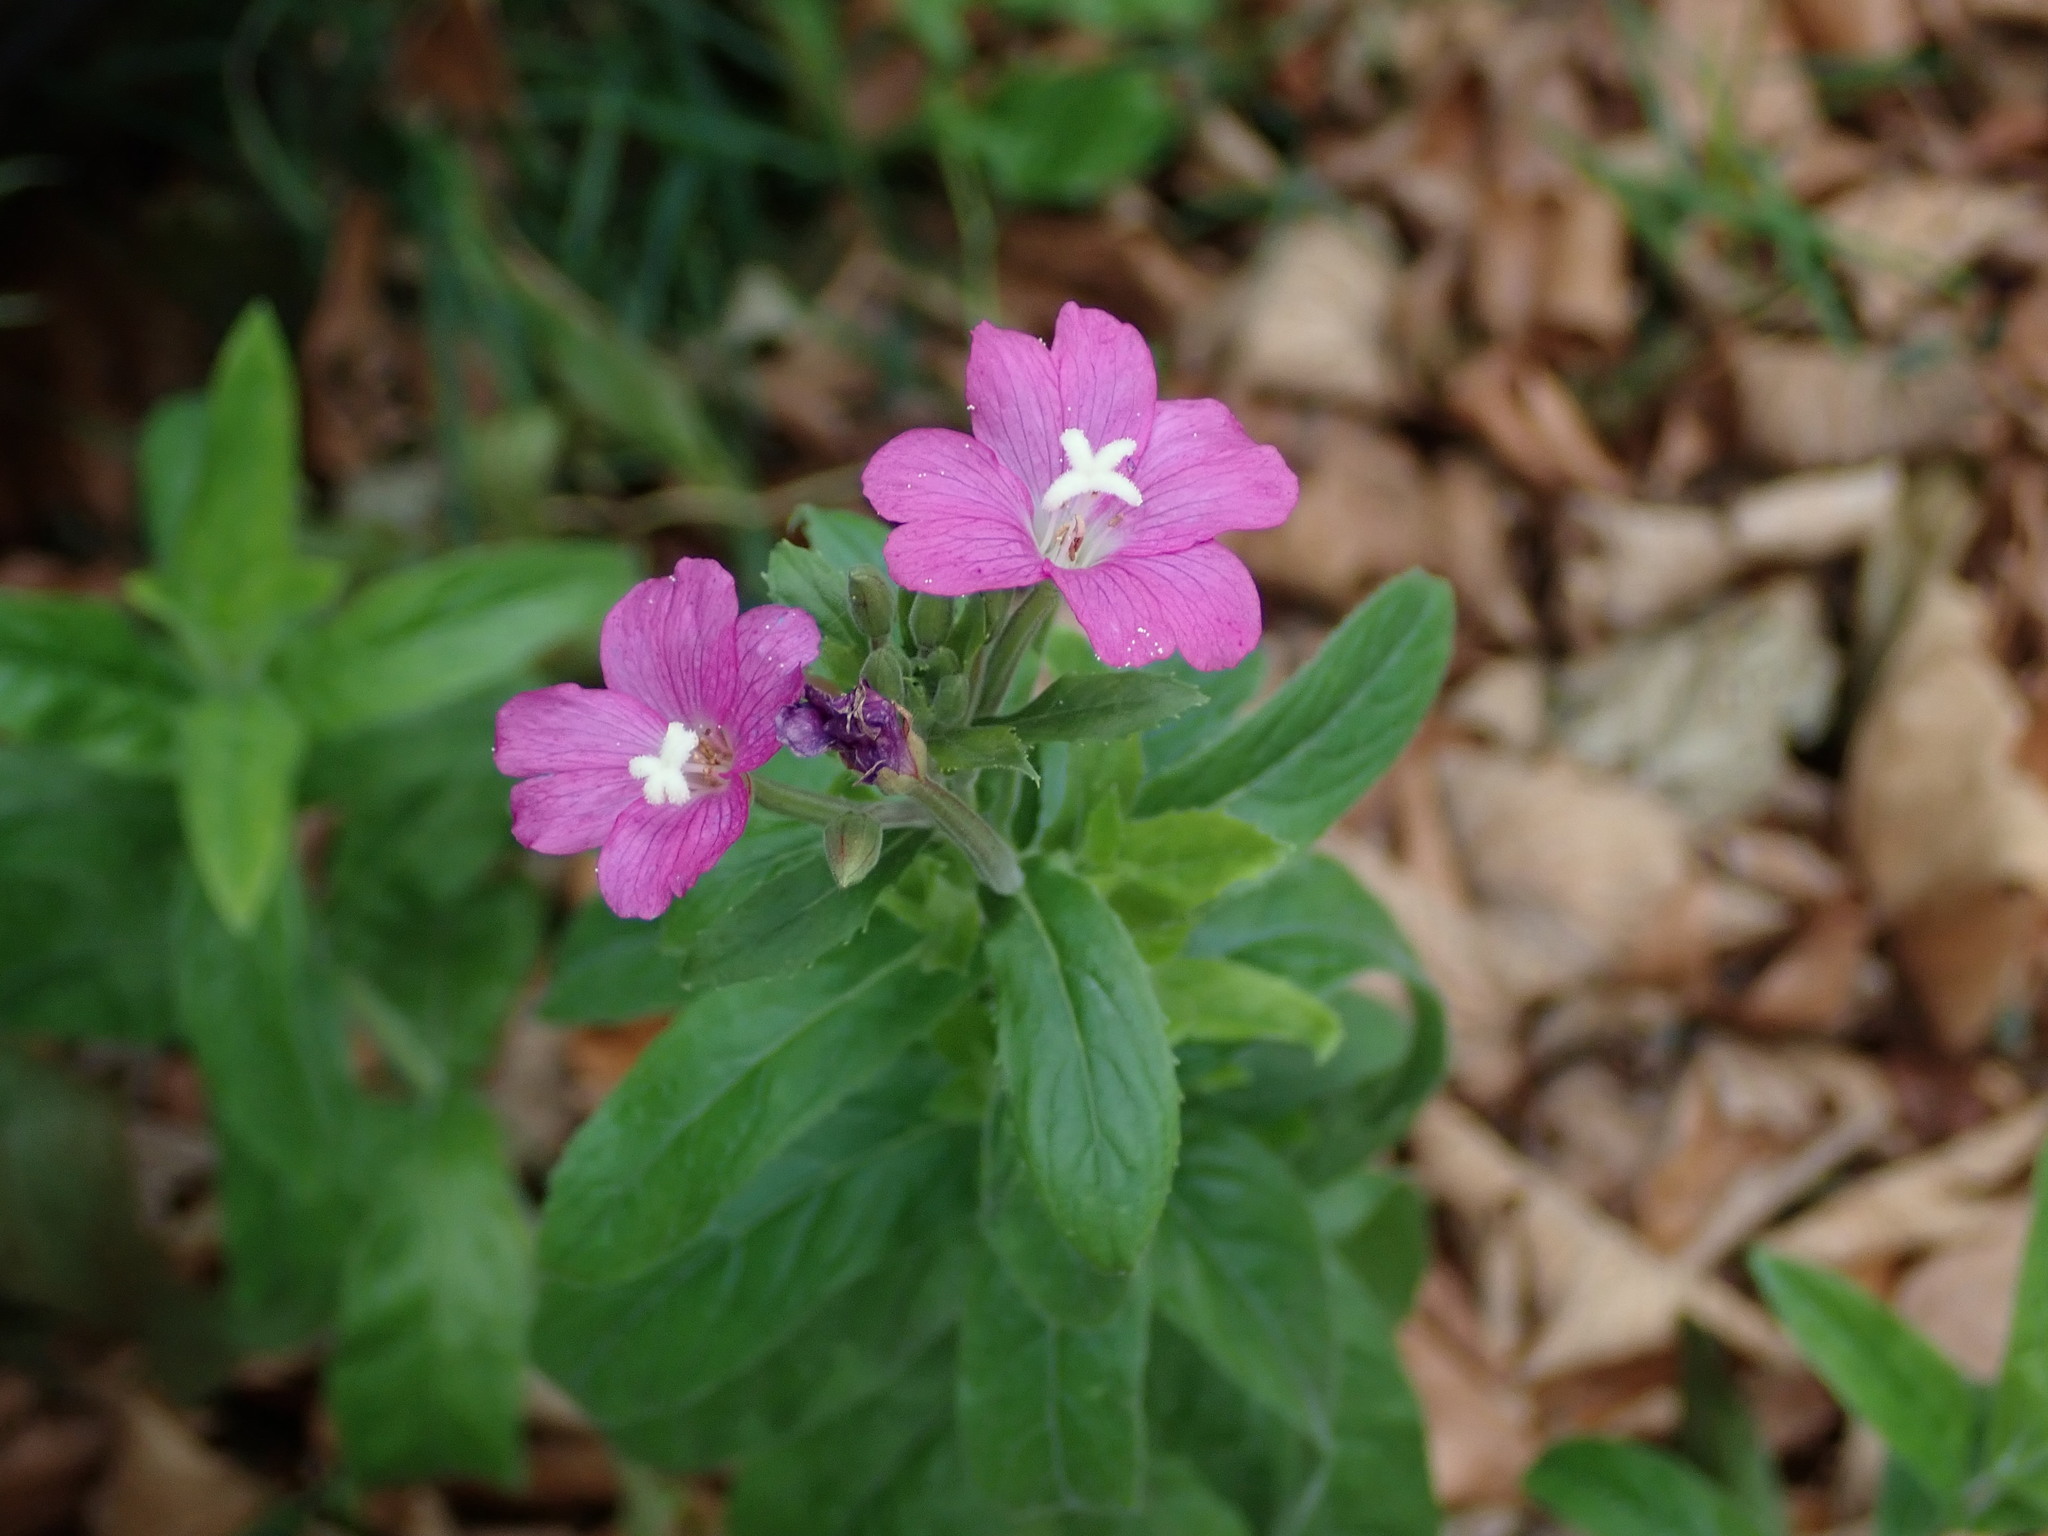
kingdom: Plantae
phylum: Tracheophyta
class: Magnoliopsida
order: Myrtales
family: Onagraceae
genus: Epilobium
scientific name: Epilobium hirsutum
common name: Great willowherb
